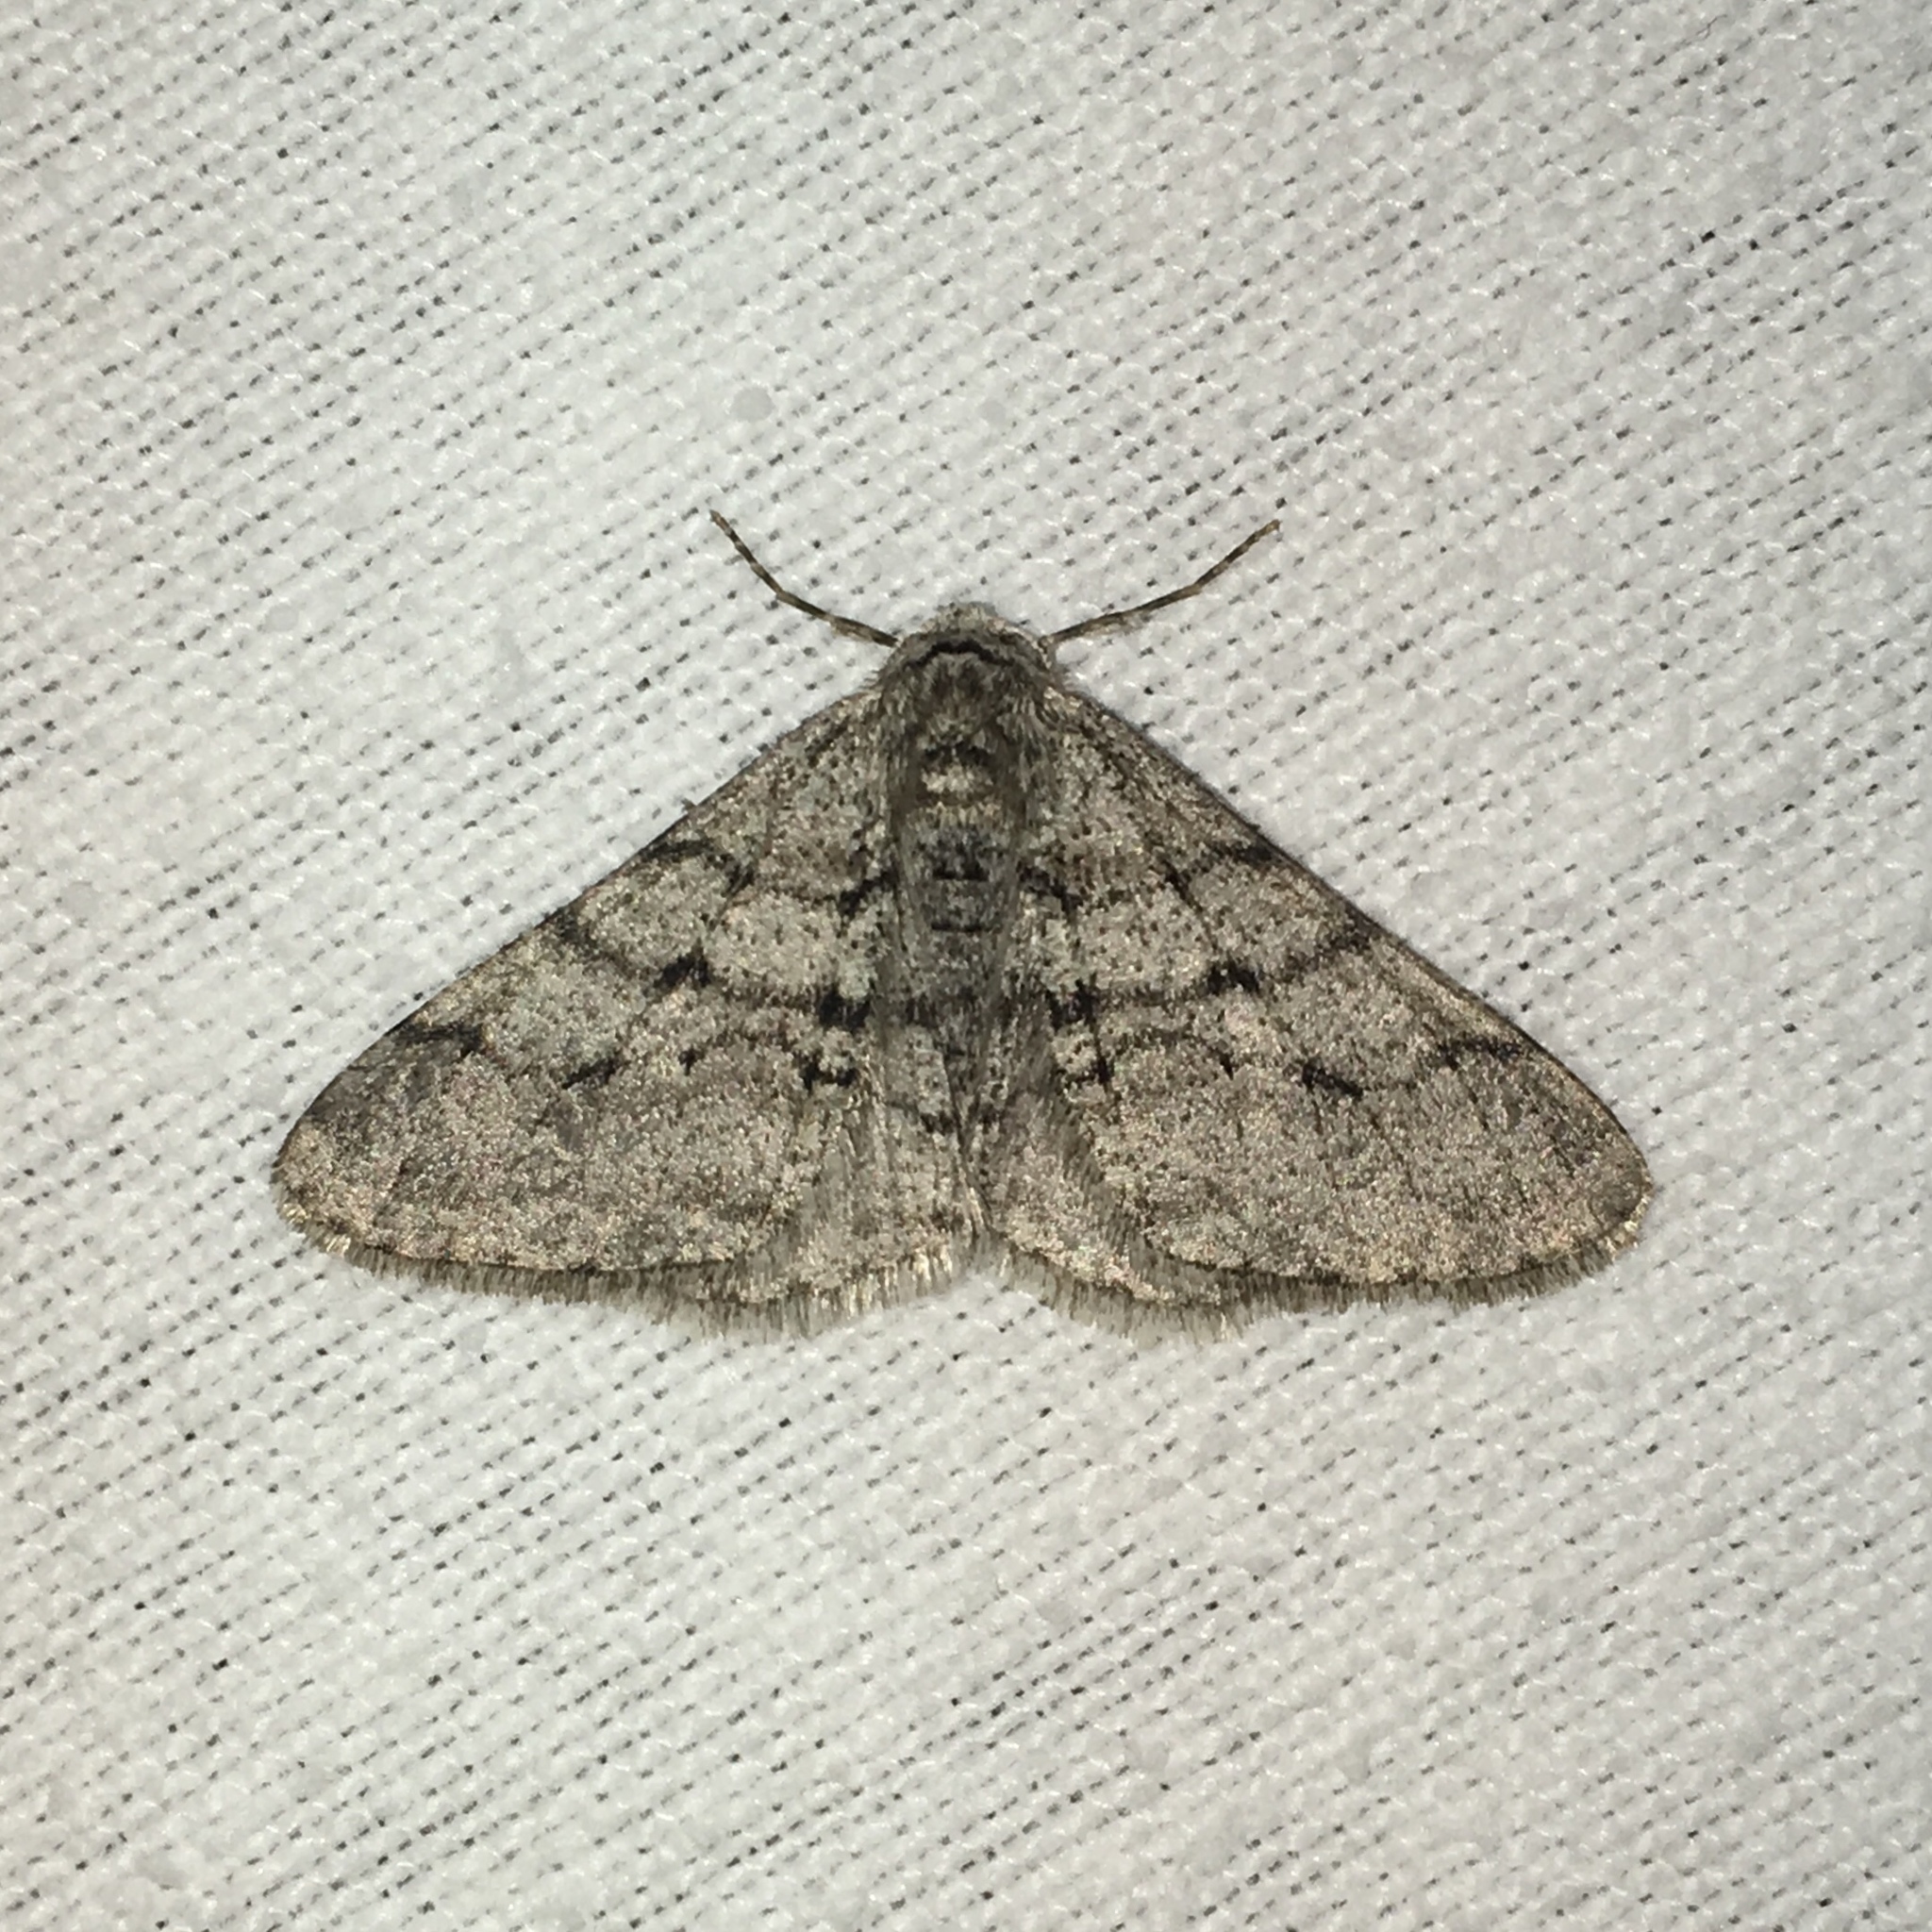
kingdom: Animalia
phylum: Arthropoda
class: Insecta
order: Lepidoptera
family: Geometridae
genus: Phigalia
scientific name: Phigalia titea
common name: Spiny looper
